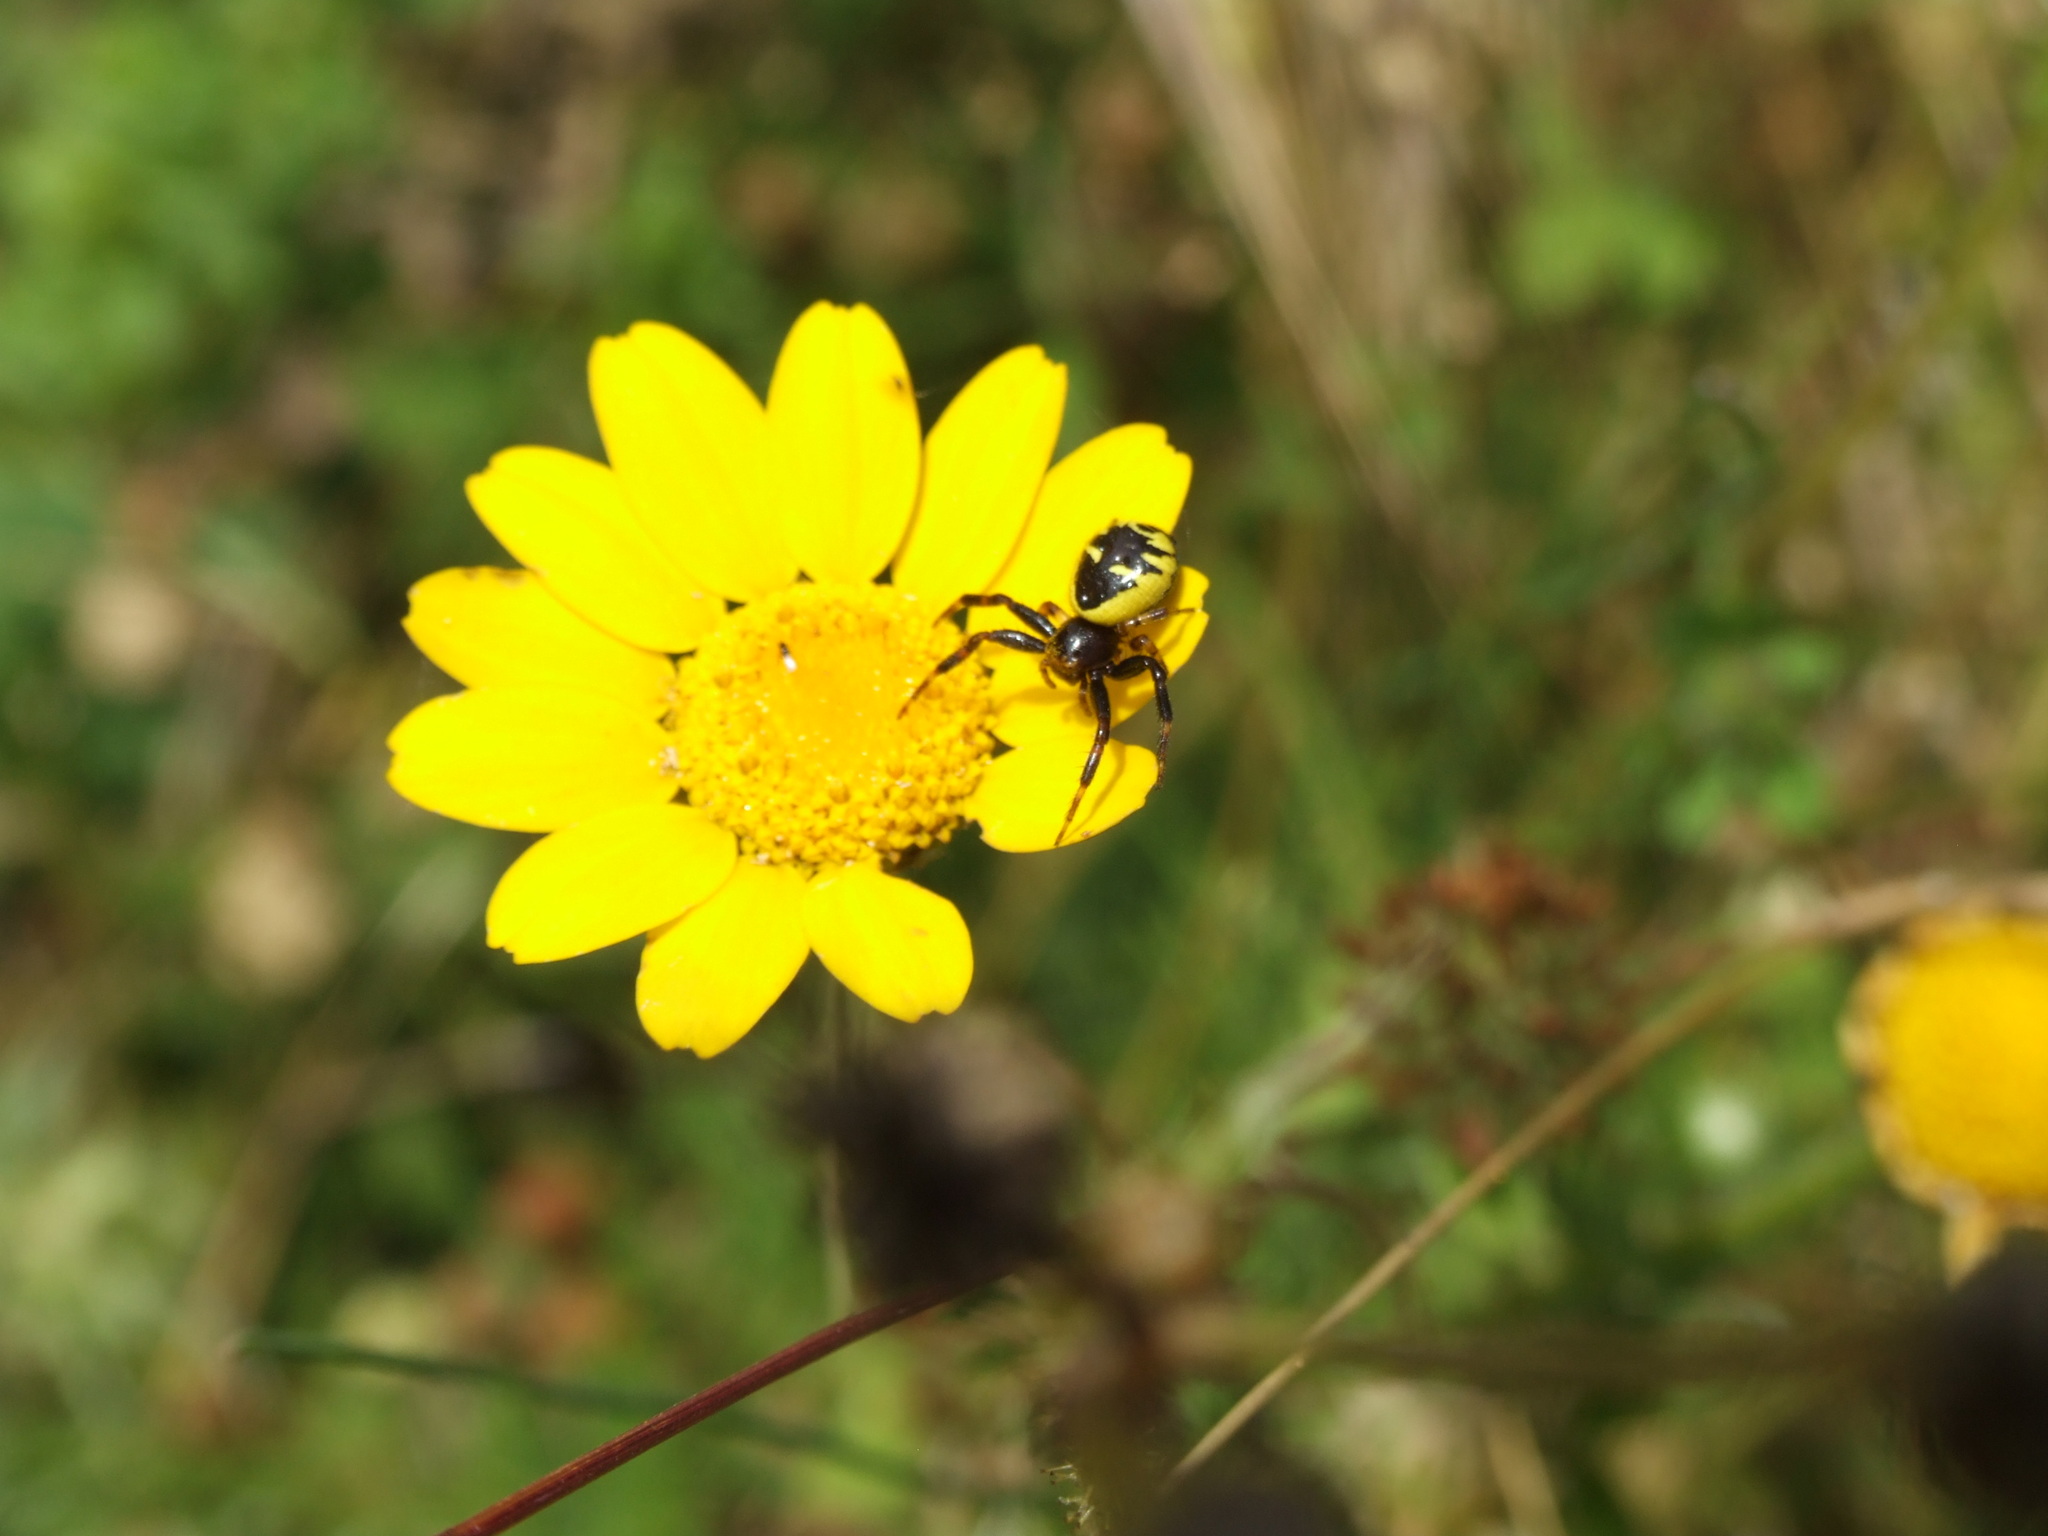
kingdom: Animalia
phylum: Arthropoda
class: Arachnida
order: Araneae
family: Thomisidae
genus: Synema
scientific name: Synema globosum
